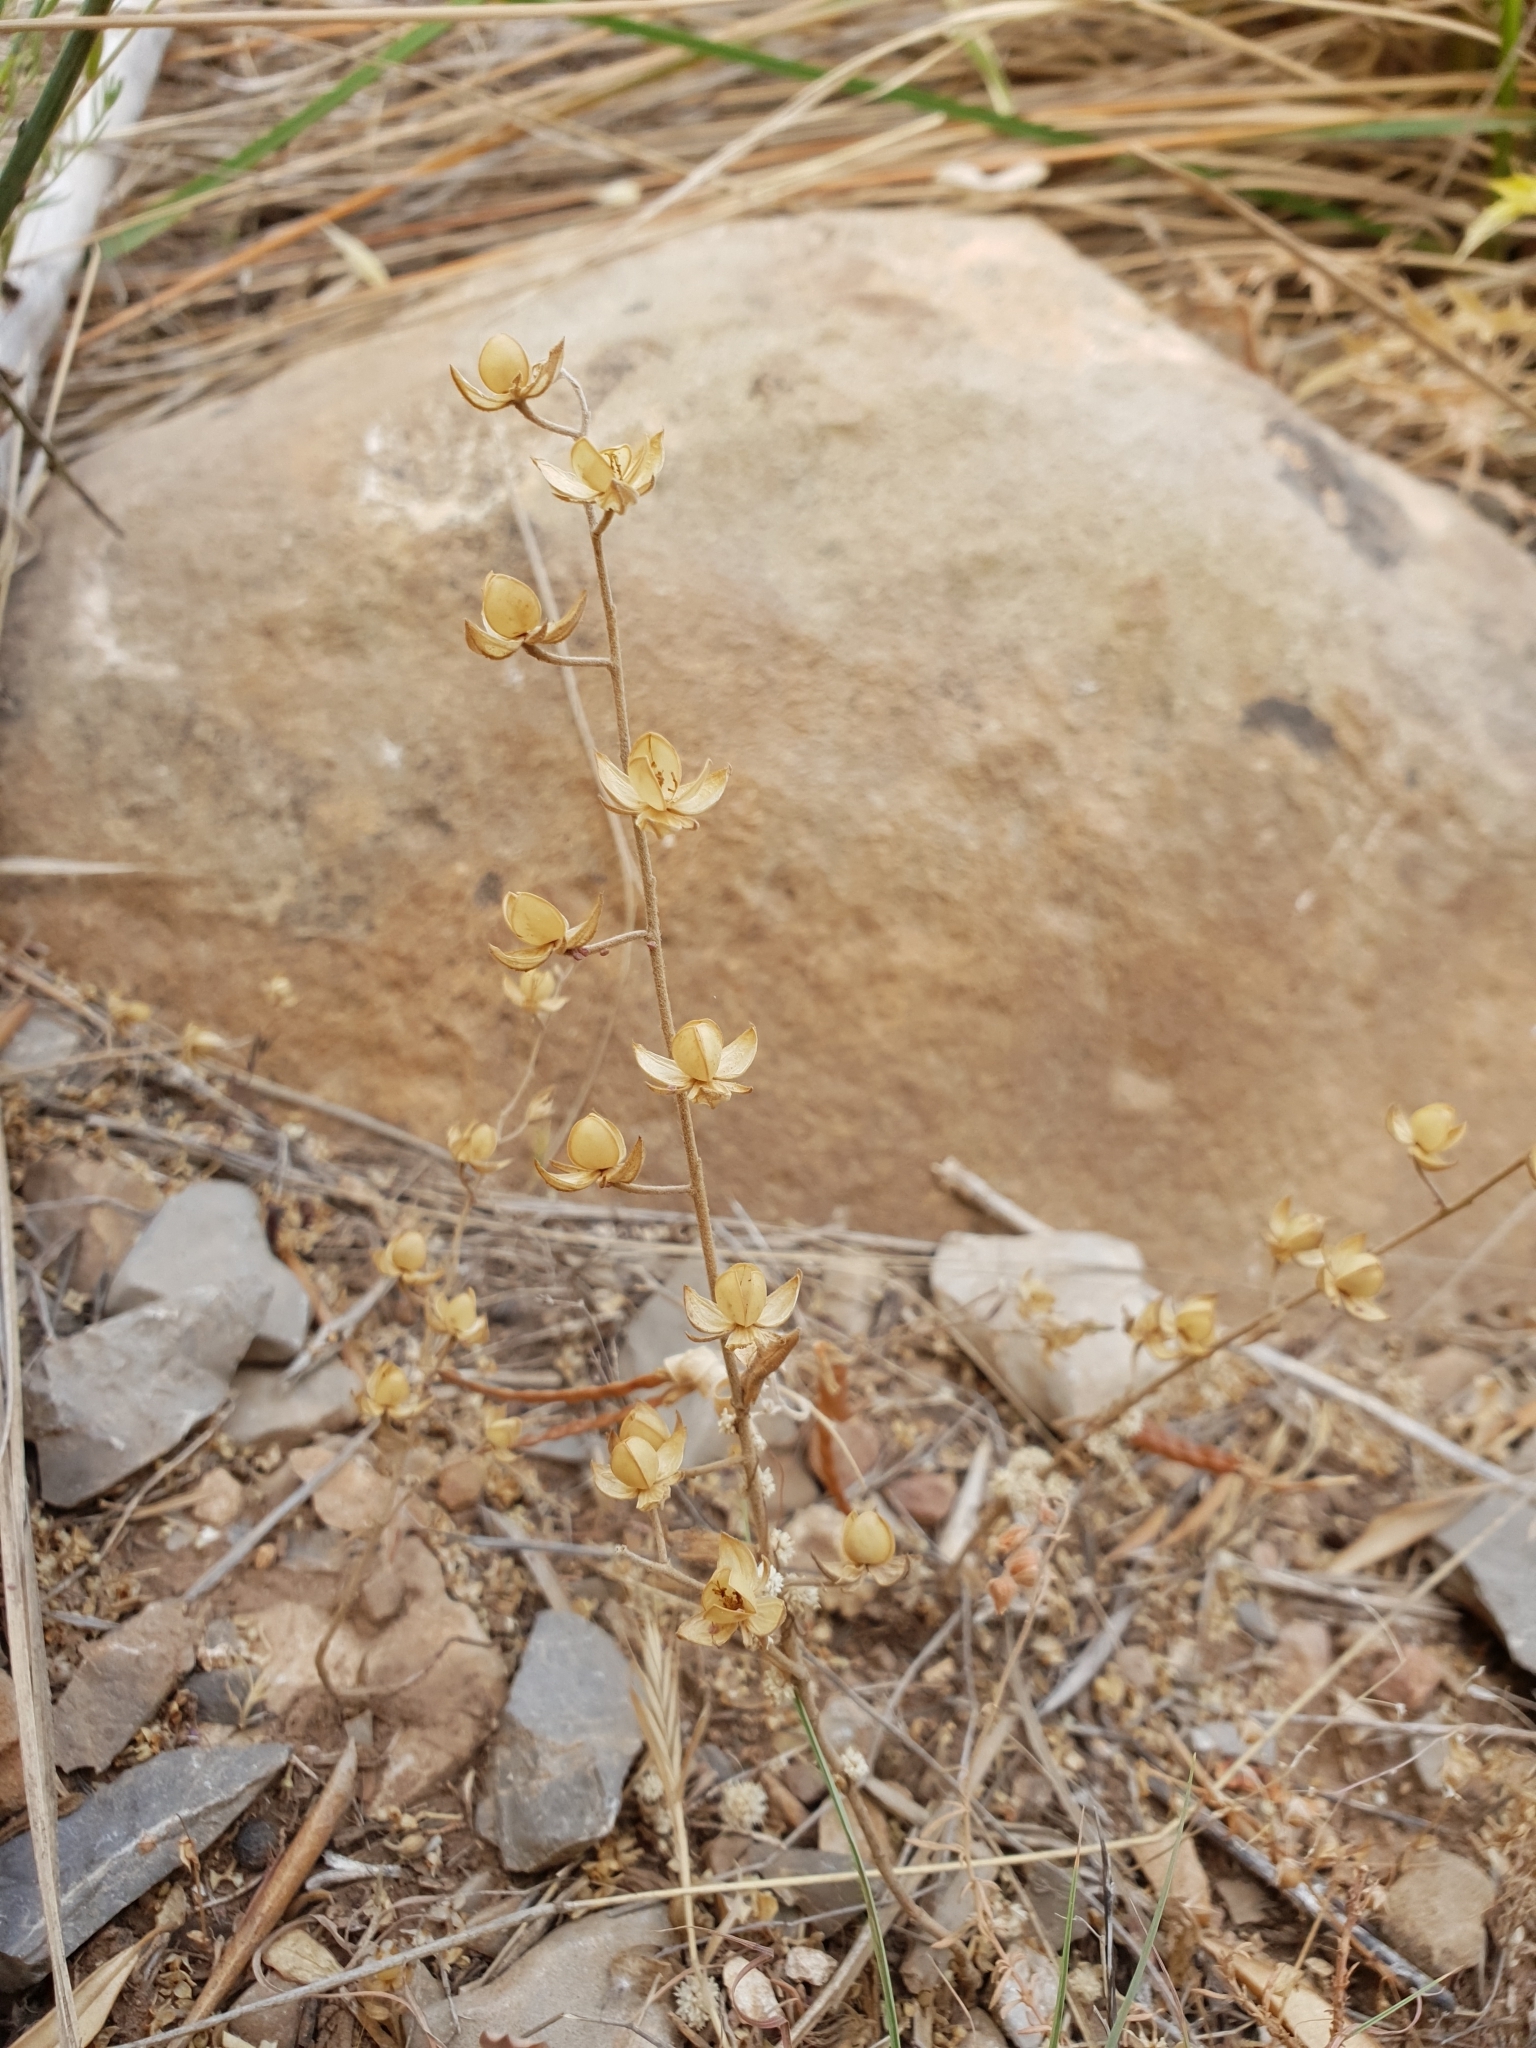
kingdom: Plantae
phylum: Tracheophyta
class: Magnoliopsida
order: Malvales
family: Cistaceae
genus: Helianthemum
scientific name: Helianthemum salicifolium
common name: Willowleaf frostweed
